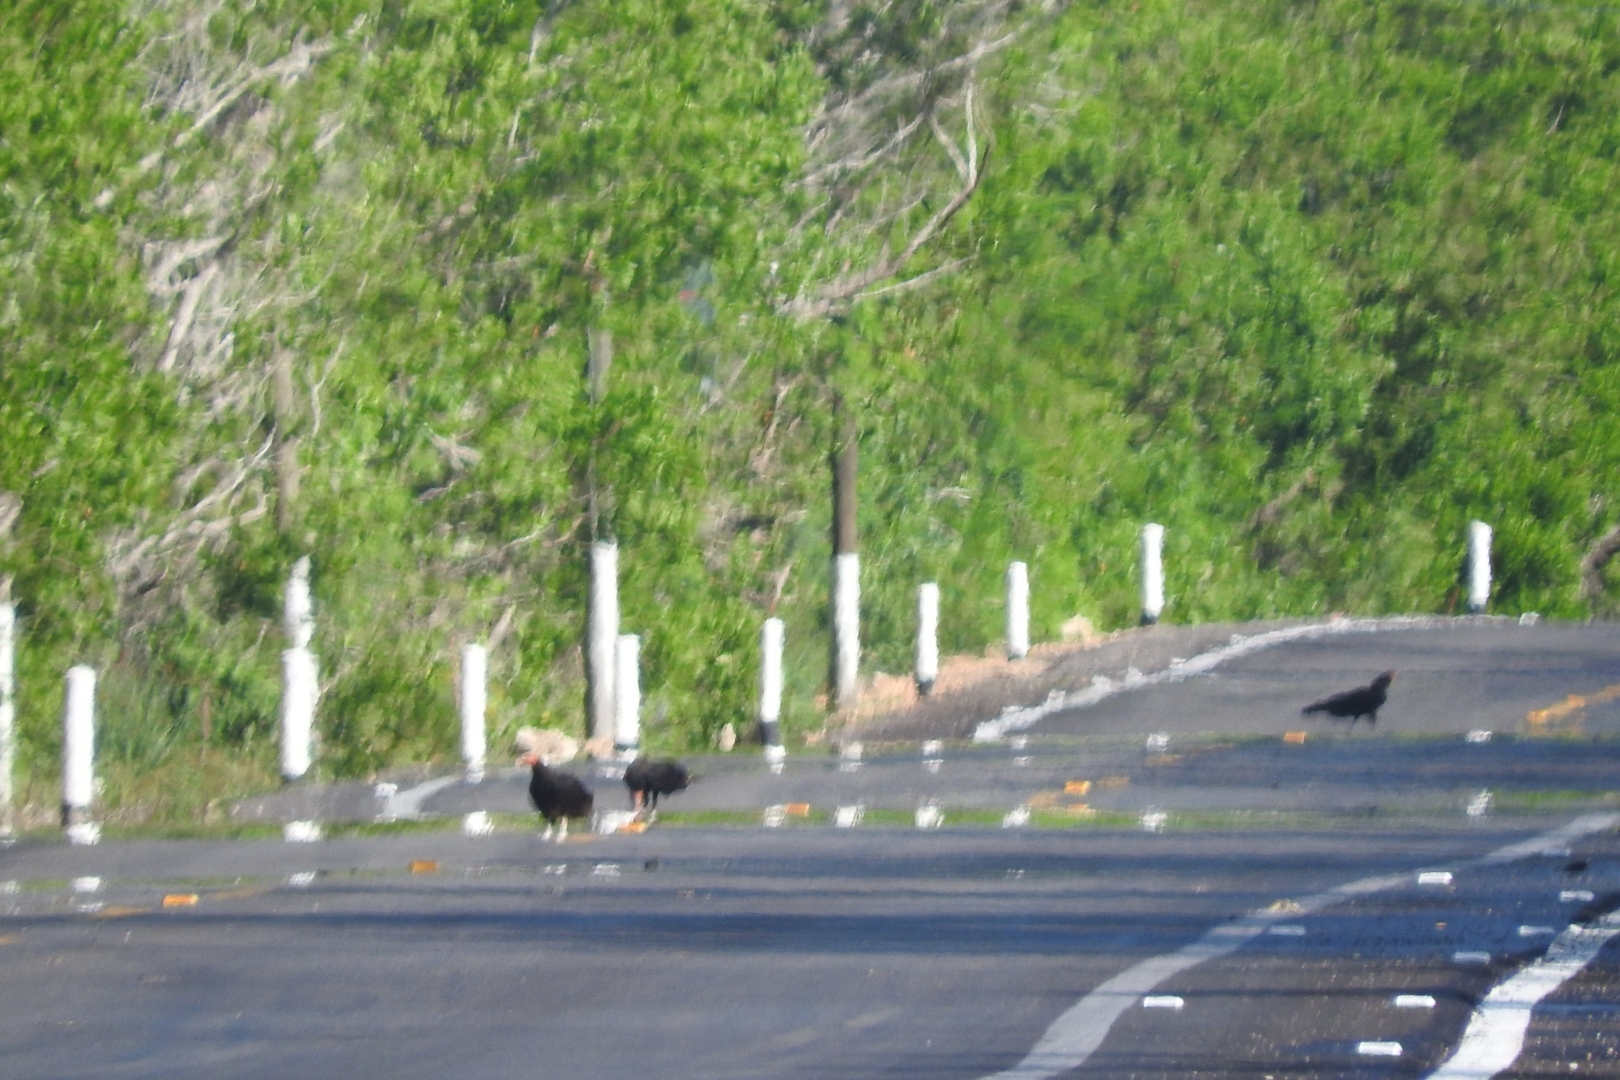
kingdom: Animalia
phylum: Chordata
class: Aves
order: Accipitriformes
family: Cathartidae
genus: Cathartes
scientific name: Cathartes burrovianus
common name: Lesser yellow-headed vulture
